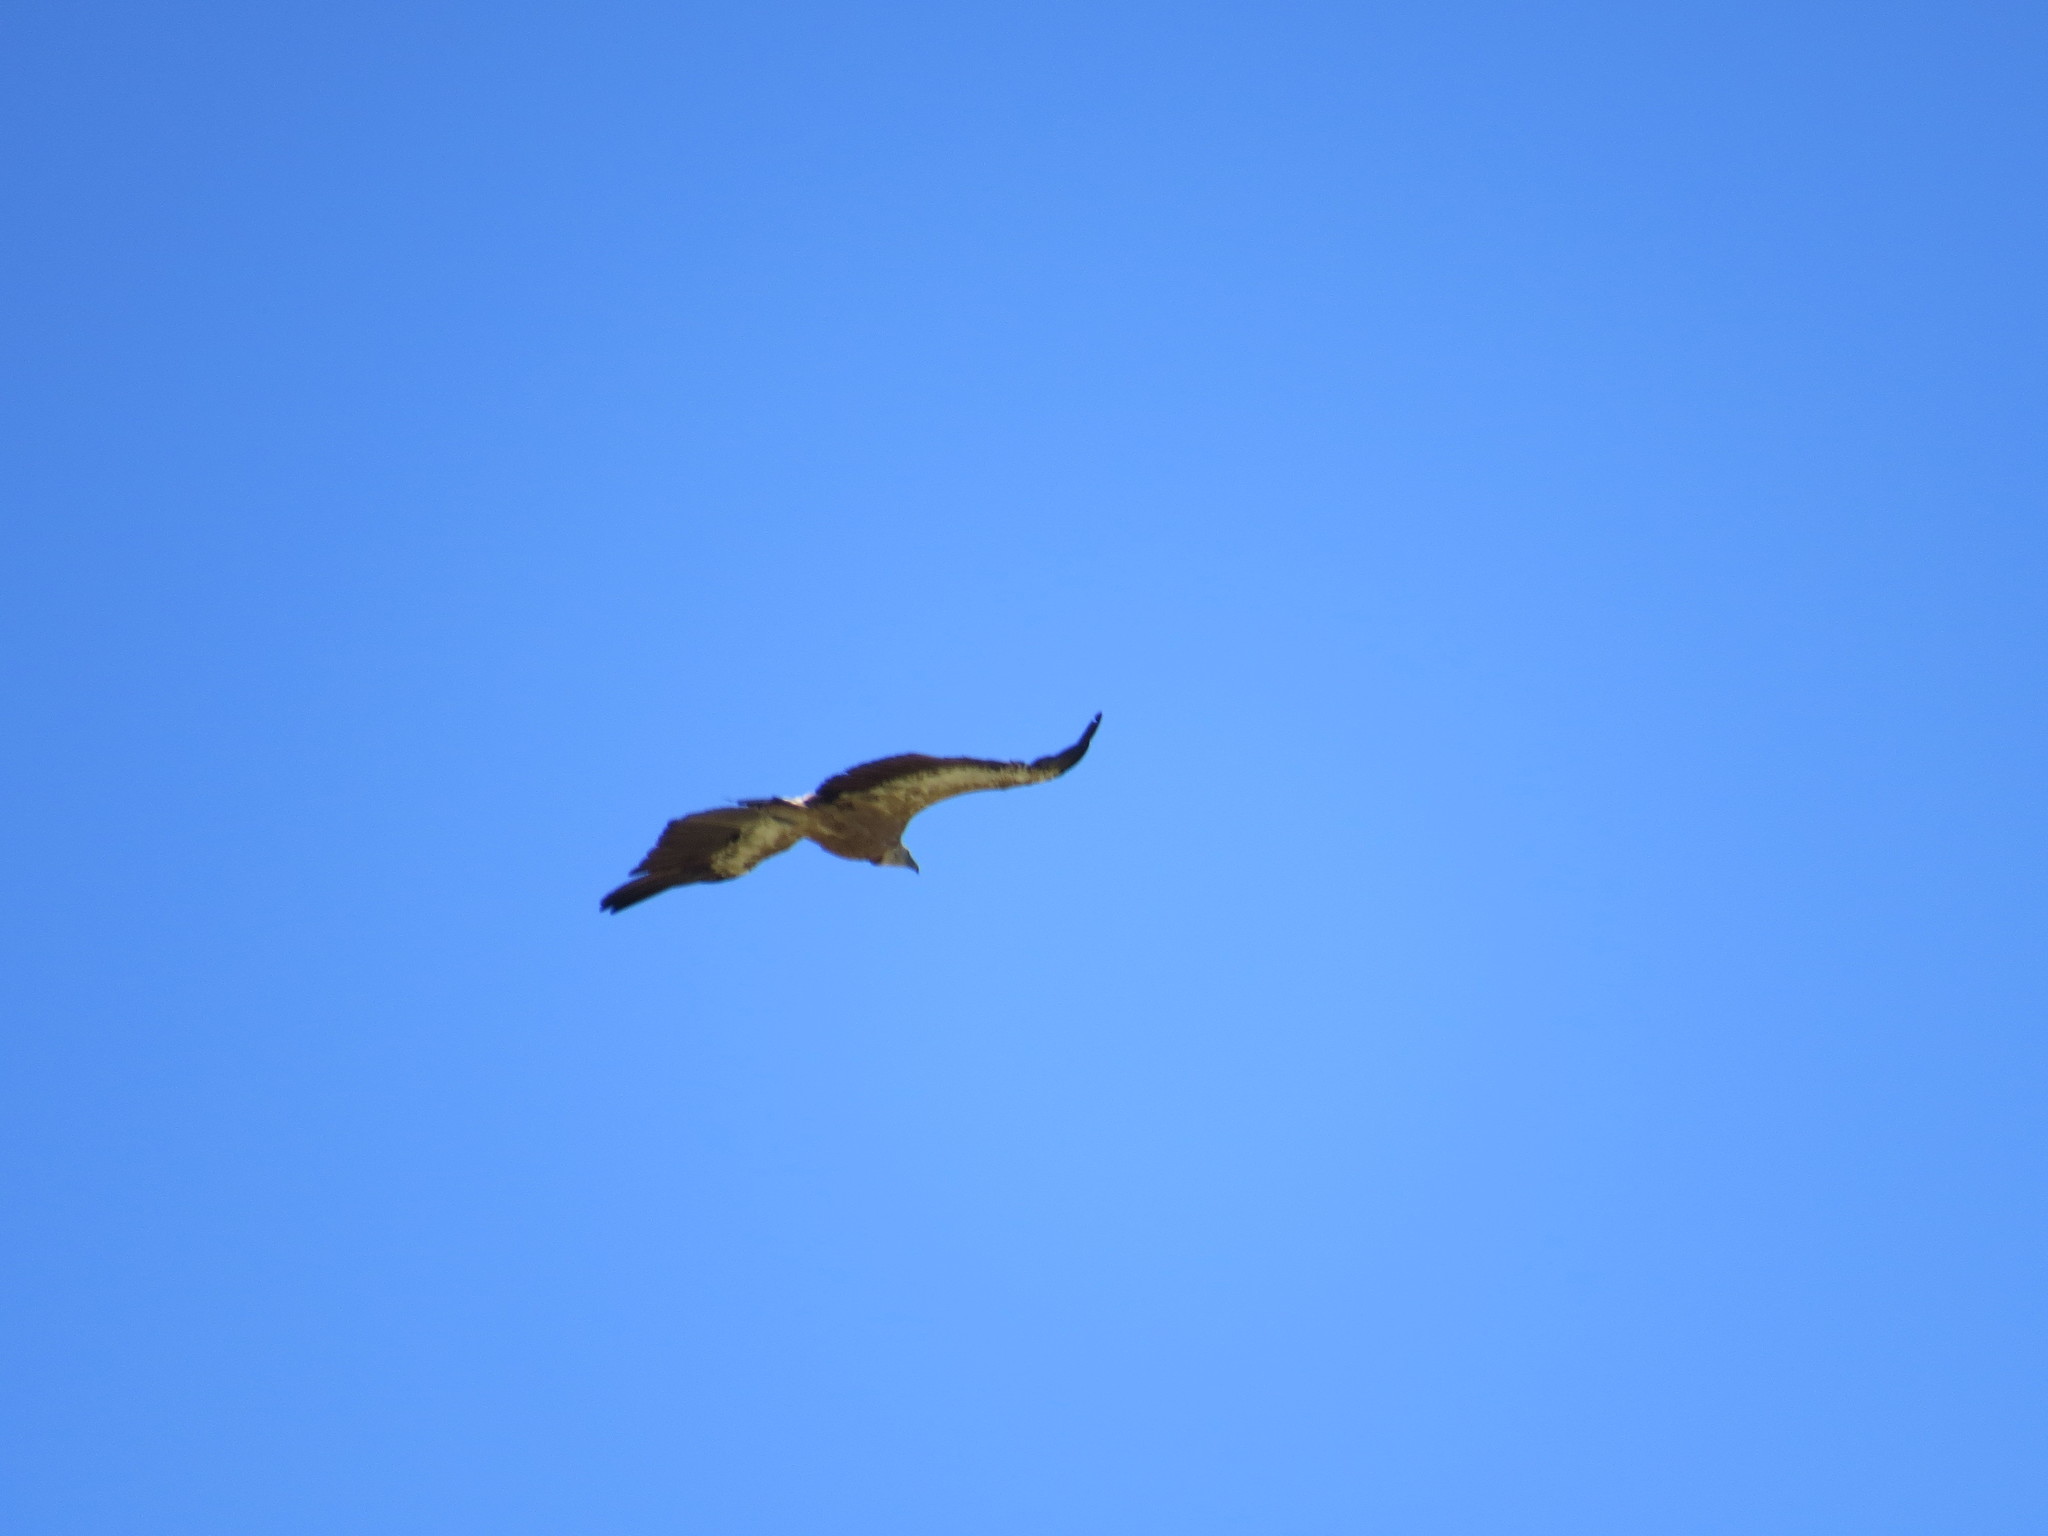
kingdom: Animalia
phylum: Chordata
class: Aves
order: Accipitriformes
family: Accipitridae
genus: Gyps
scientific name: Gyps fulvus
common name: Griffon vulture
